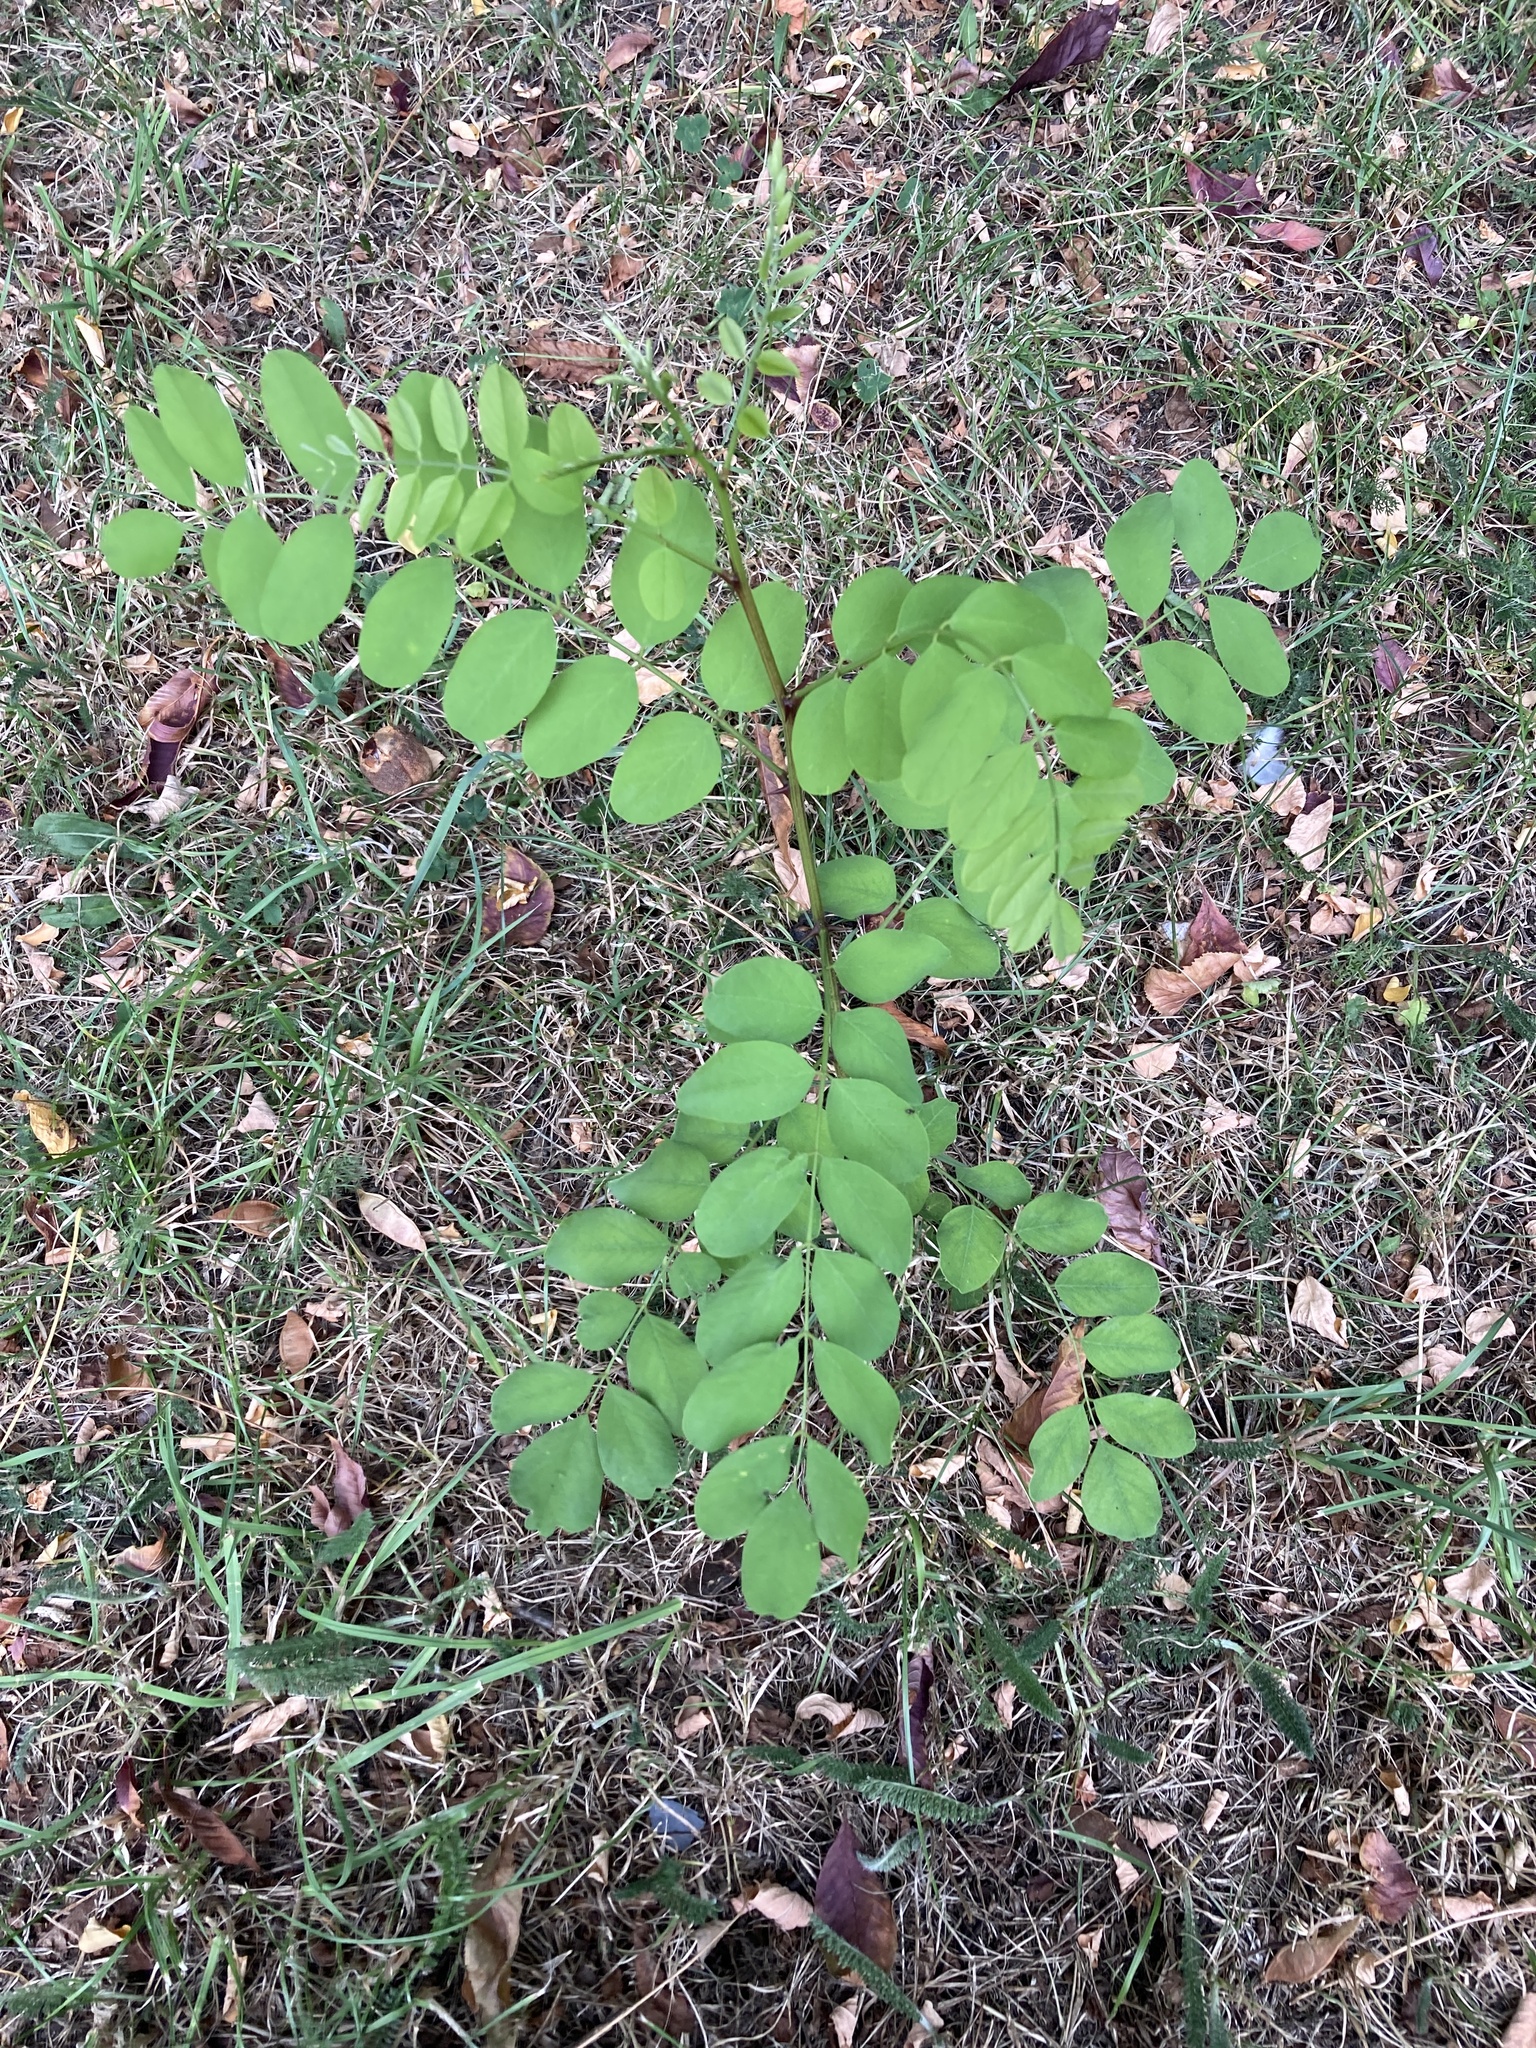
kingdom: Plantae
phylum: Tracheophyta
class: Magnoliopsida
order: Fabales
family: Fabaceae
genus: Robinia
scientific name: Robinia pseudoacacia
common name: Black locust
